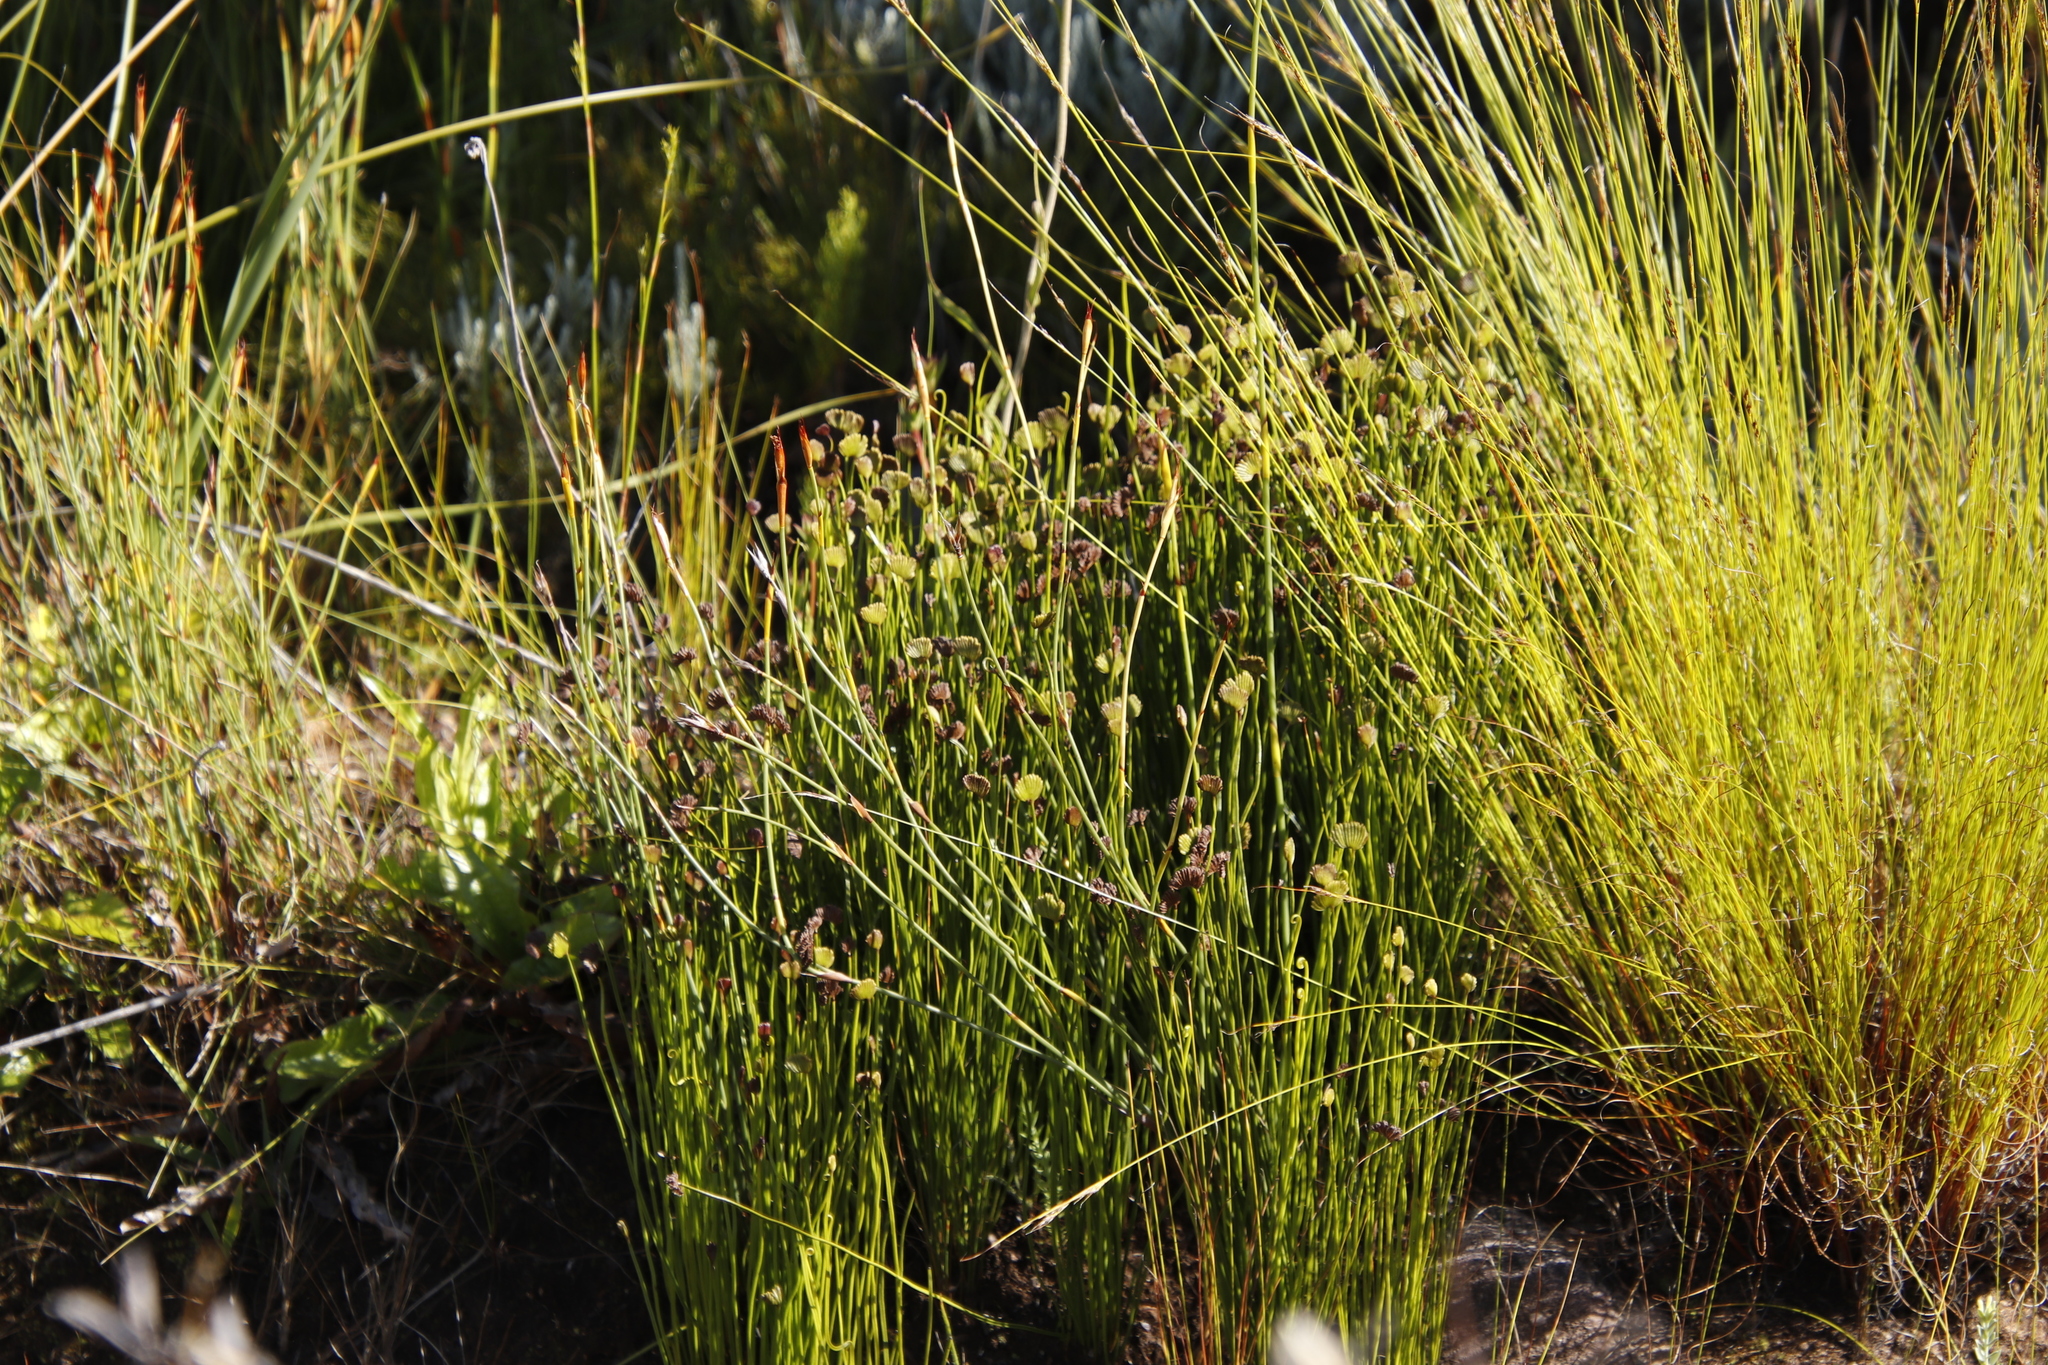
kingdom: Plantae
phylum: Tracheophyta
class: Polypodiopsida
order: Schizaeales
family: Schizaeaceae
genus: Schizaea
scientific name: Schizaea pectinata
